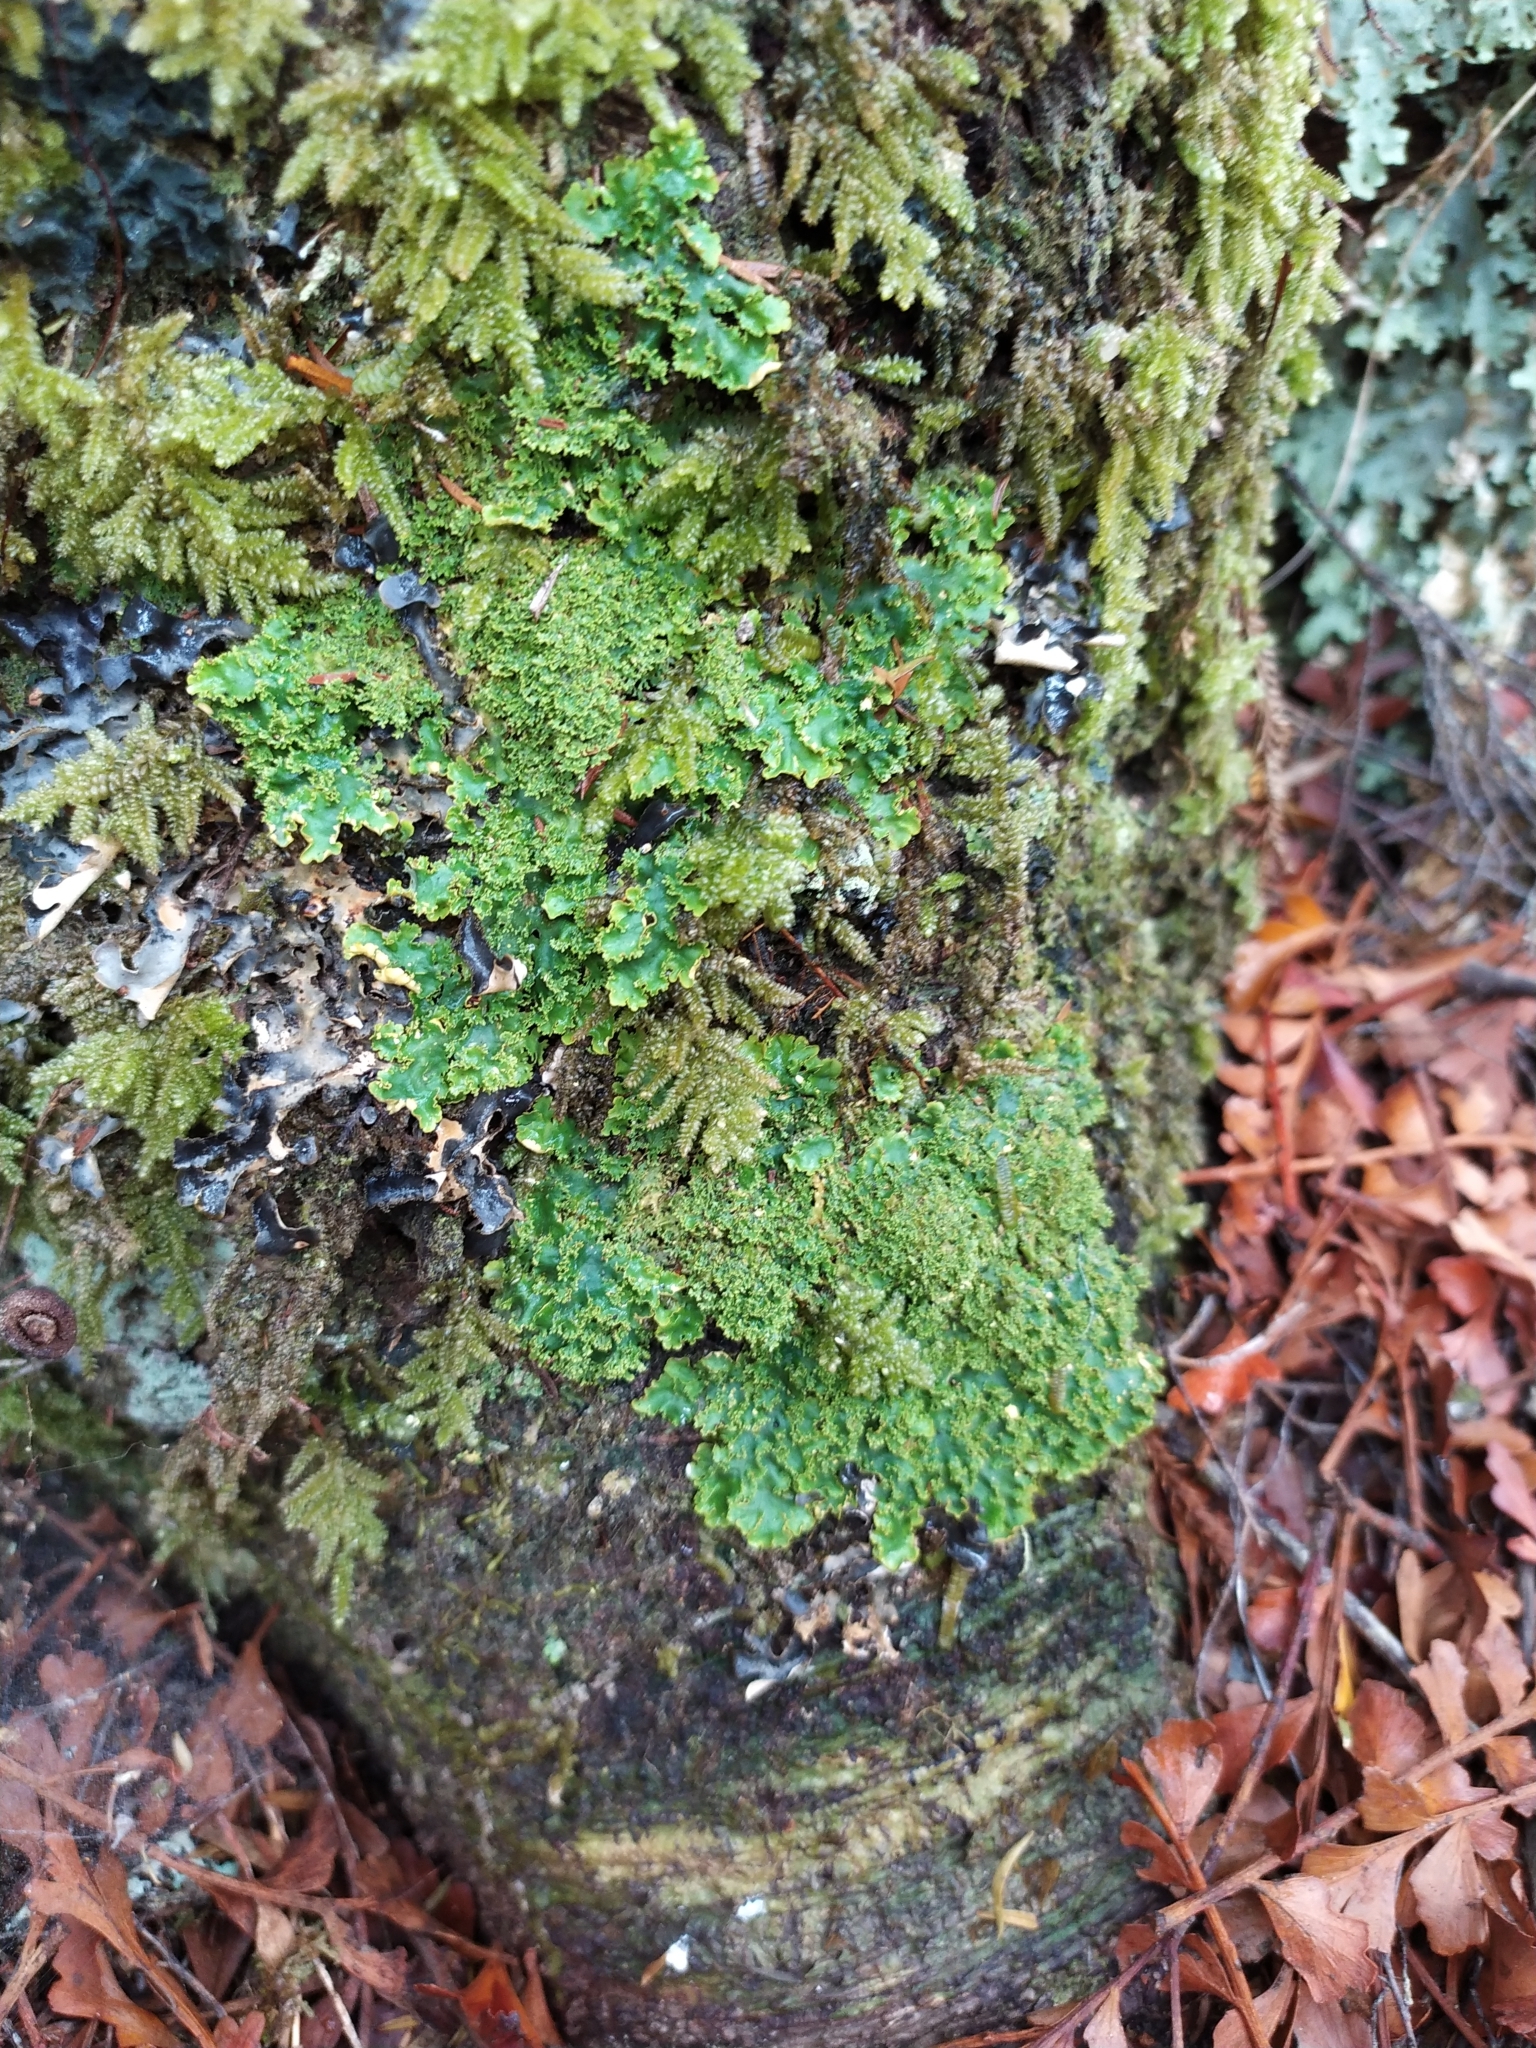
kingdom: Fungi
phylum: Ascomycota
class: Lecanoromycetes
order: Peltigerales
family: Lobariaceae
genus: Podostictina
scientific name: Podostictina pickeringii
